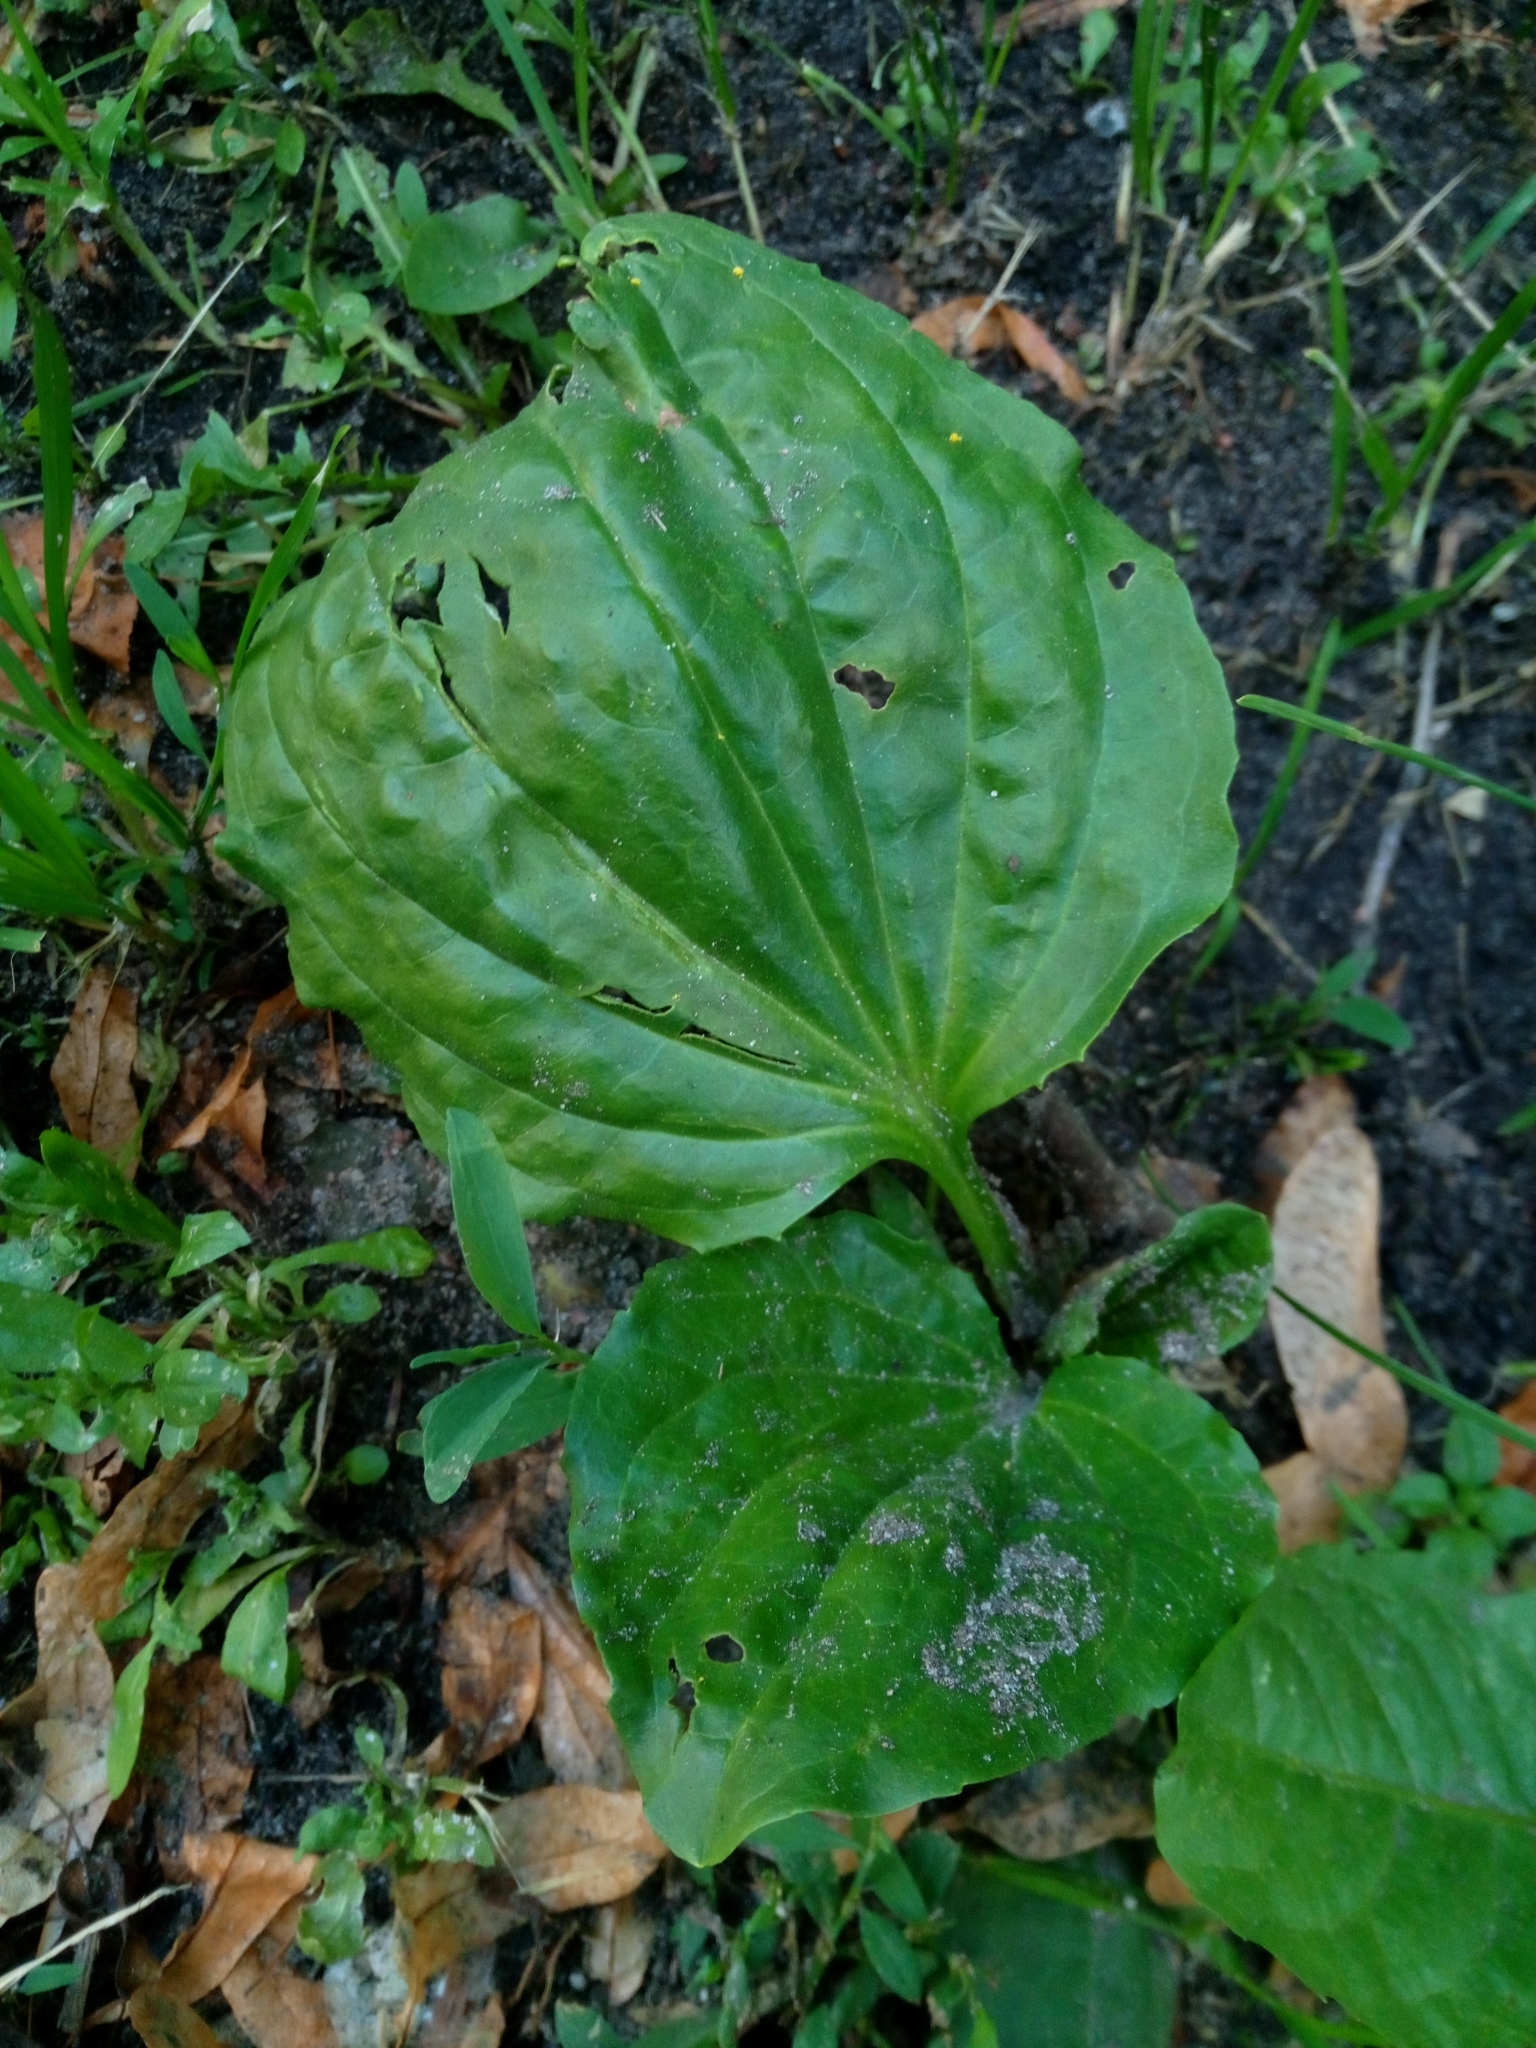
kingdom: Plantae
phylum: Tracheophyta
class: Magnoliopsida
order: Lamiales
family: Plantaginaceae
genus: Plantago
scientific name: Plantago major
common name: Common plantain
